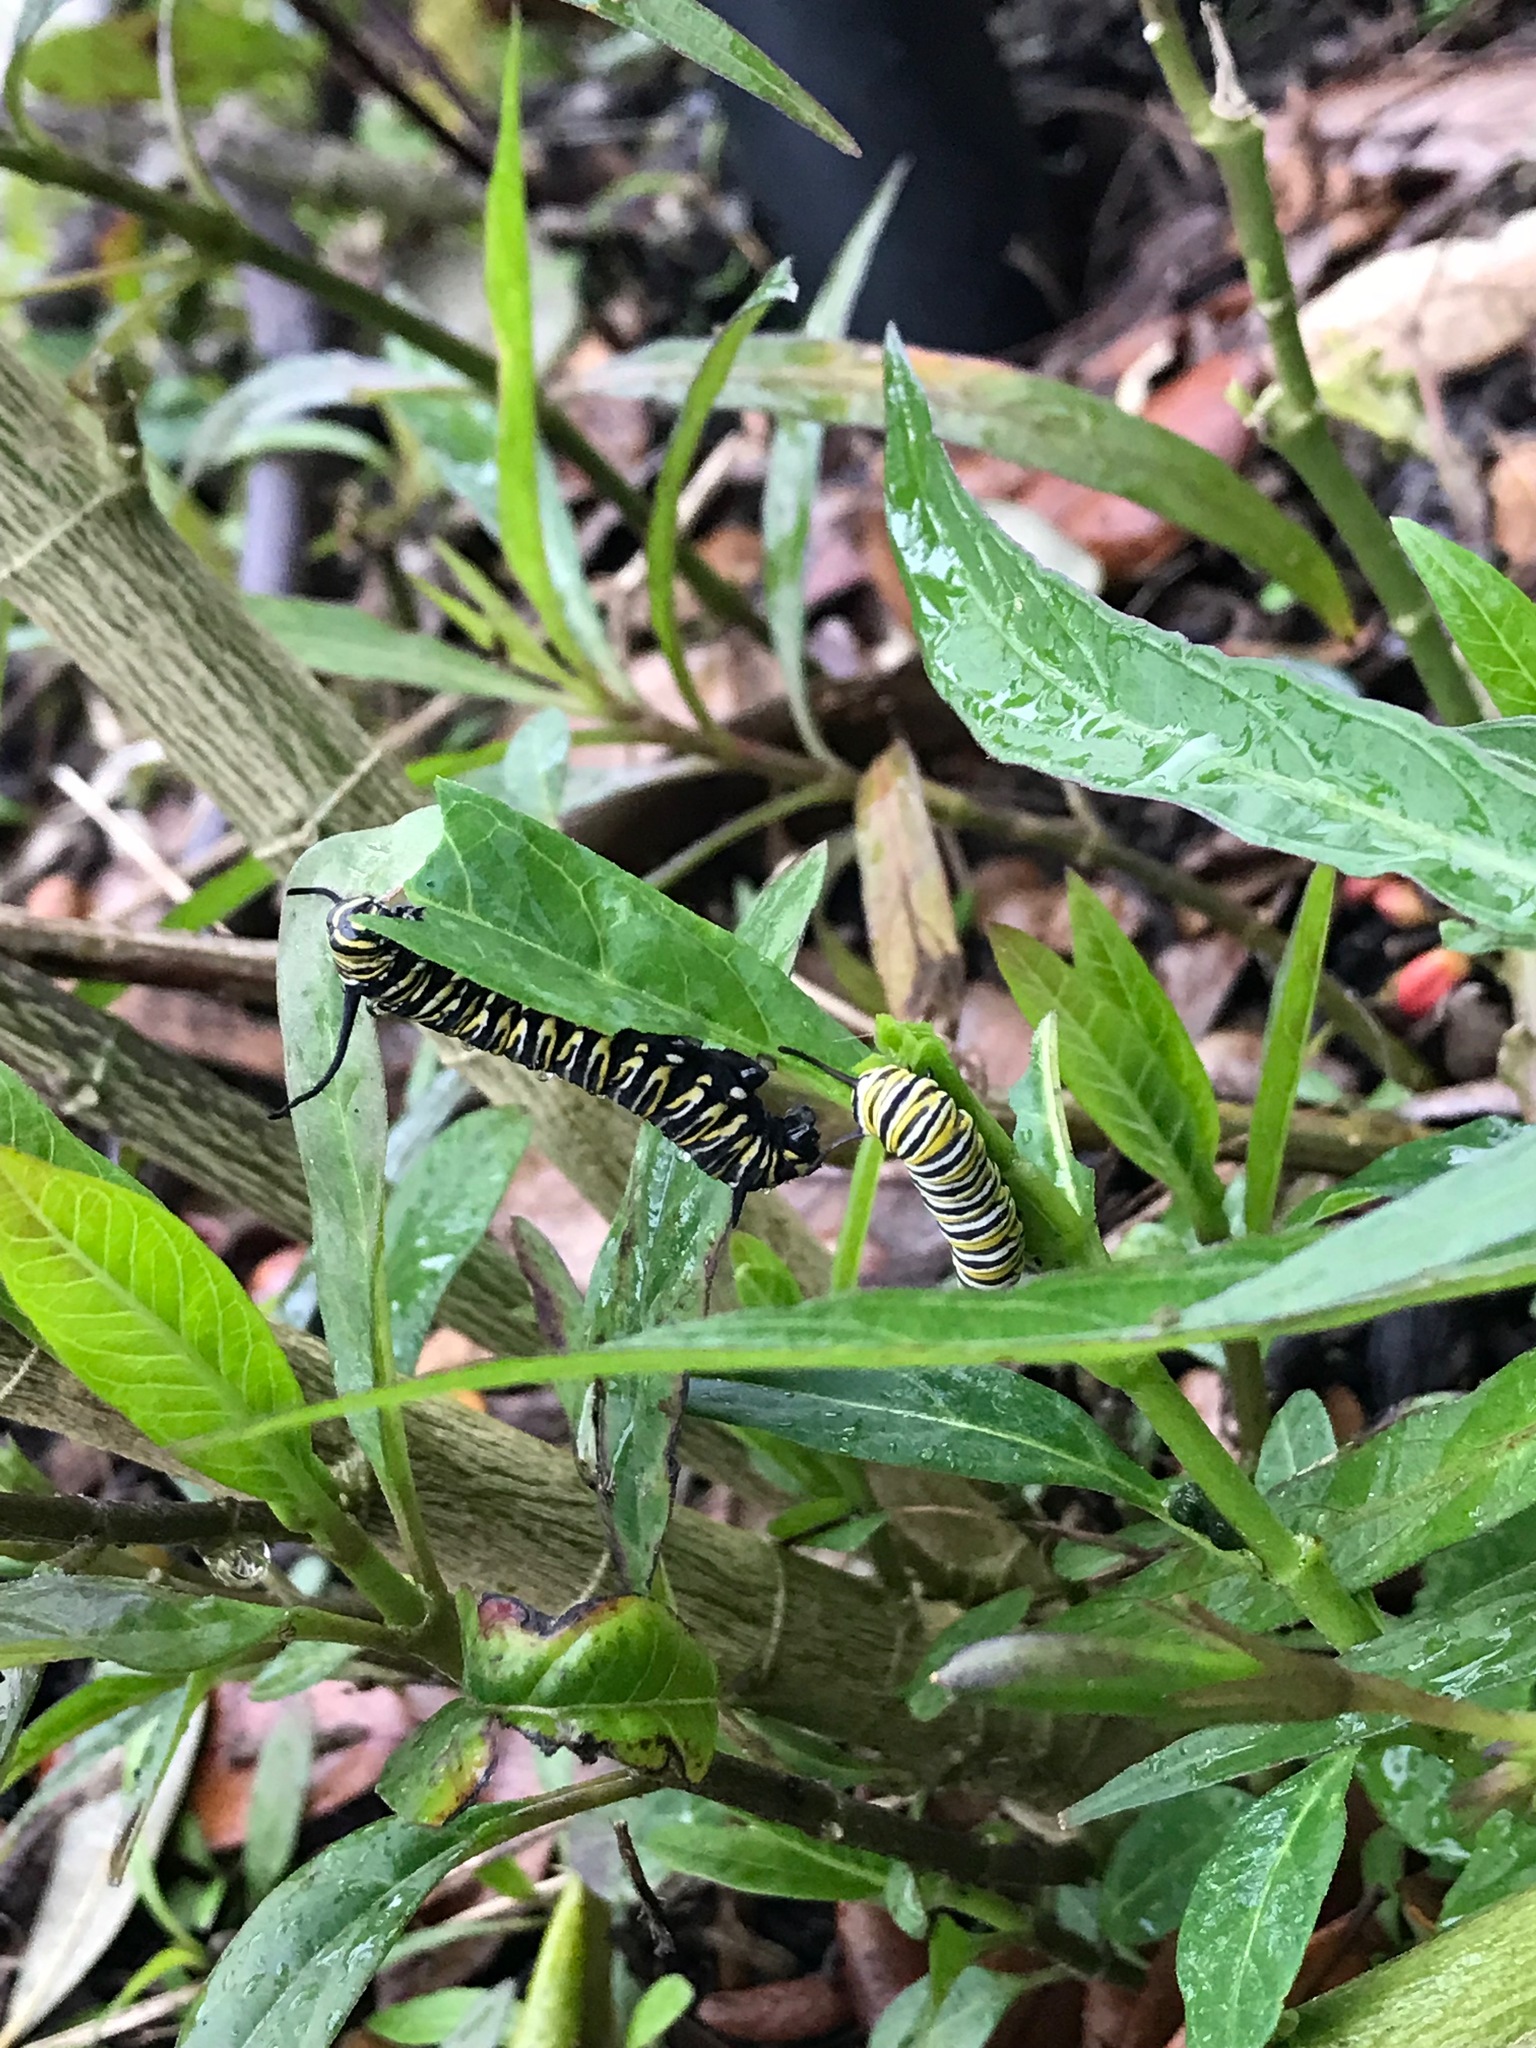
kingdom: Animalia
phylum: Arthropoda
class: Insecta
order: Lepidoptera
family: Nymphalidae
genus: Danaus
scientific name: Danaus plexippus
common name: Monarch
